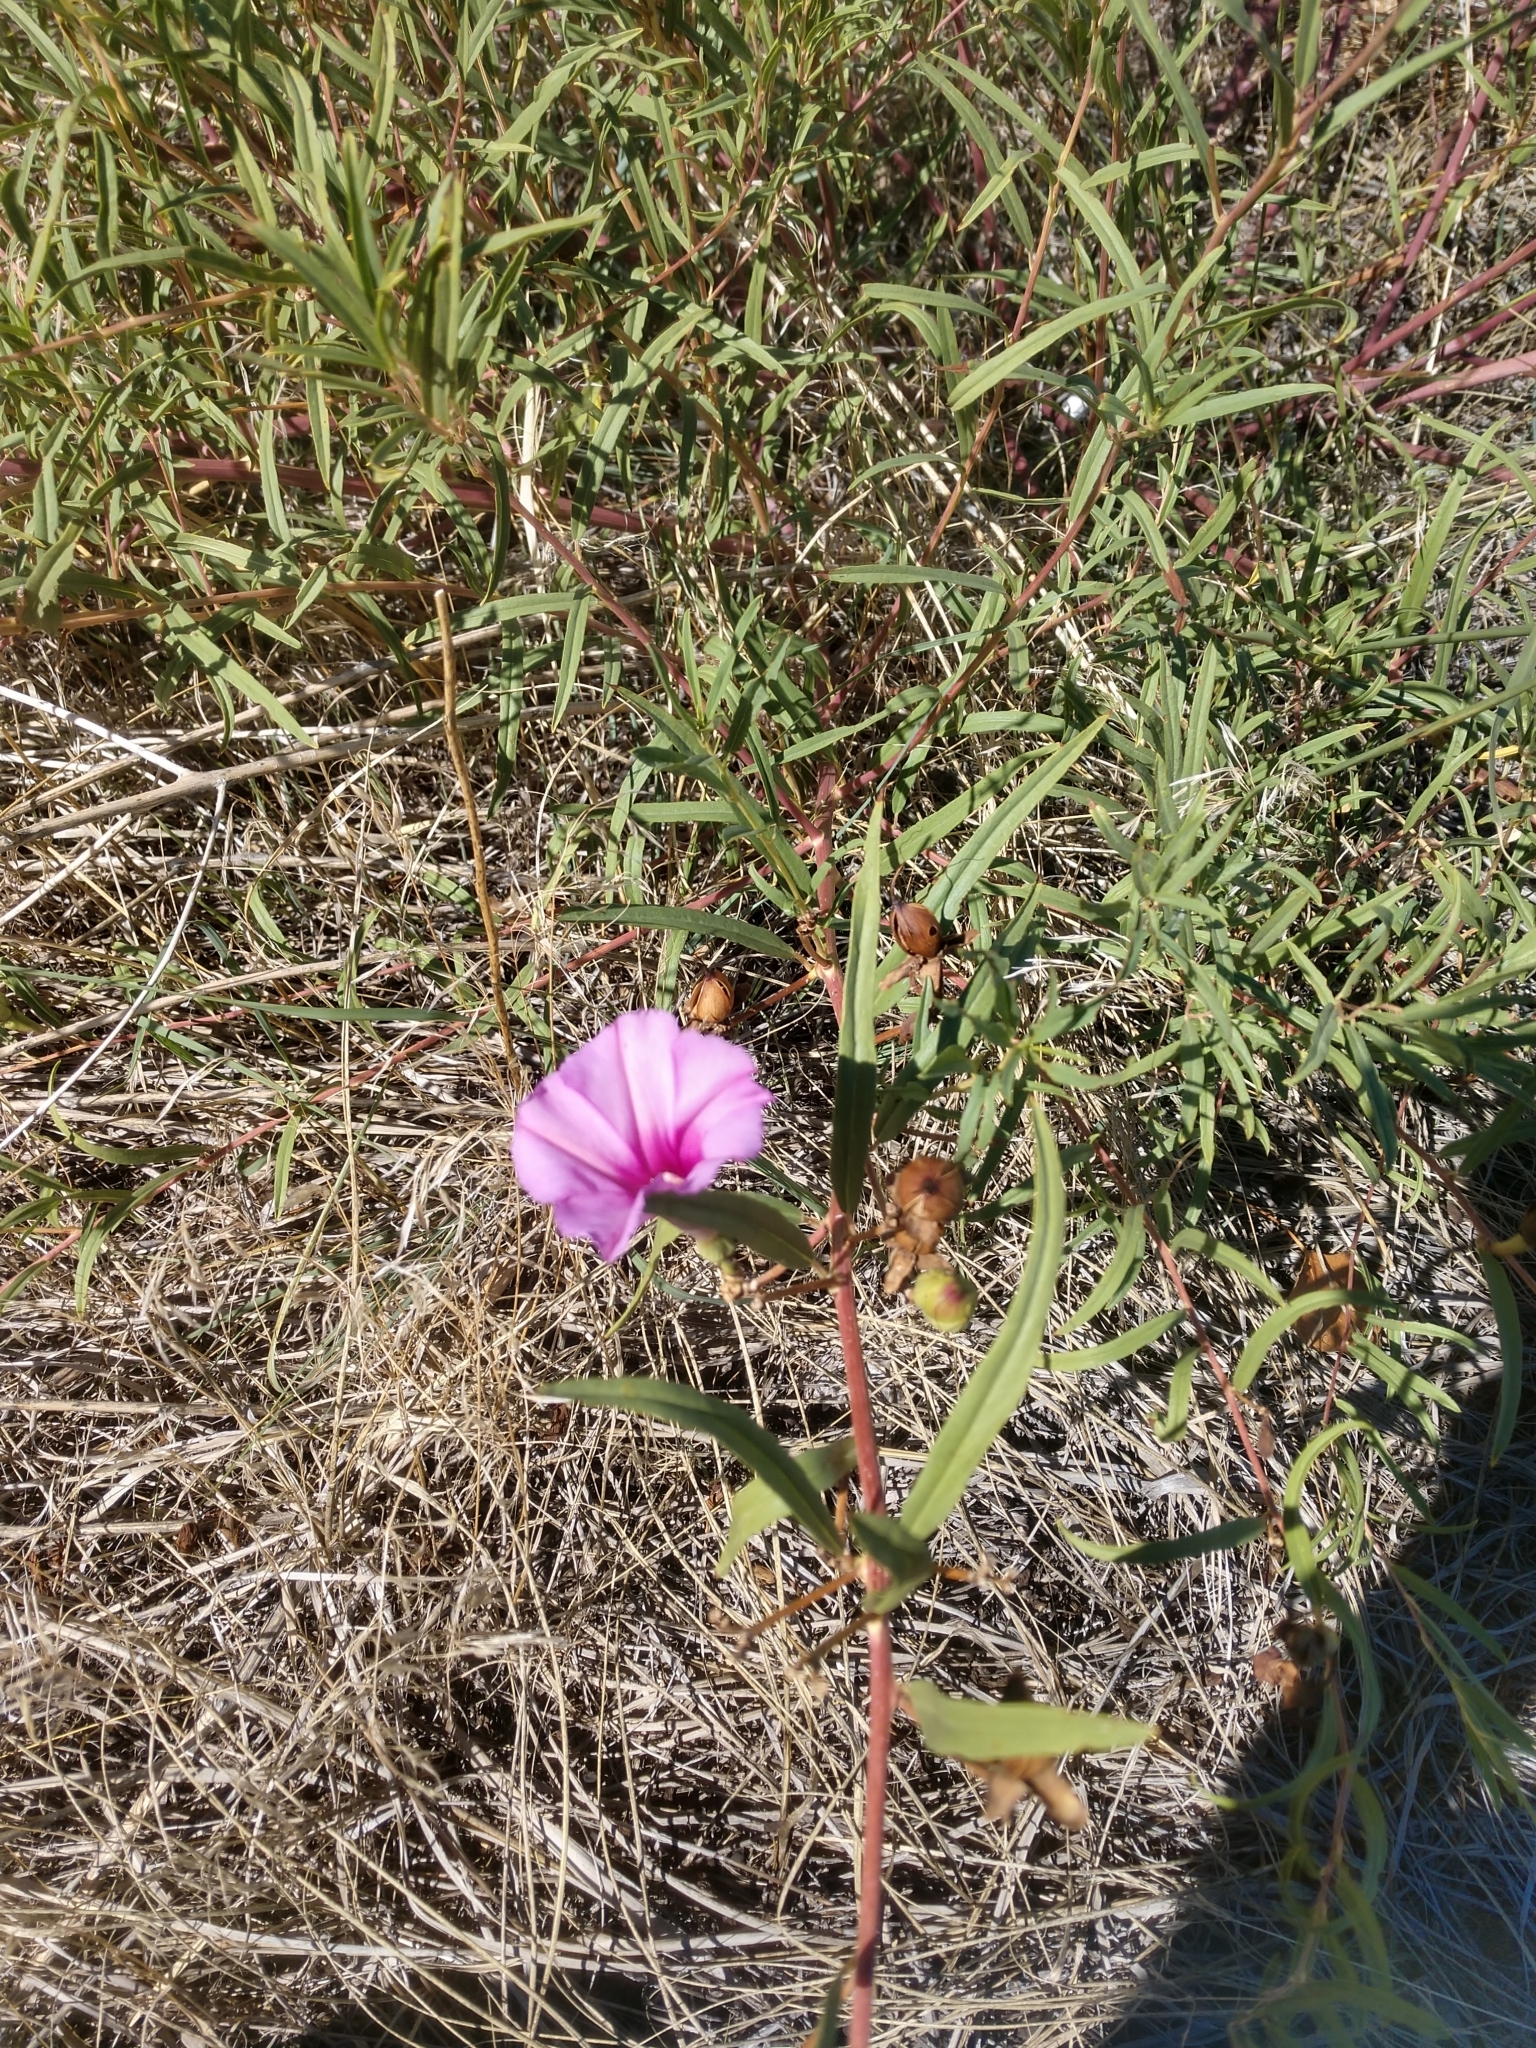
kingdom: Plantae
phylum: Tracheophyta
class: Magnoliopsida
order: Solanales
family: Convolvulaceae
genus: Ipomoea
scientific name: Ipomoea leptophylla
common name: Bush moonflower
